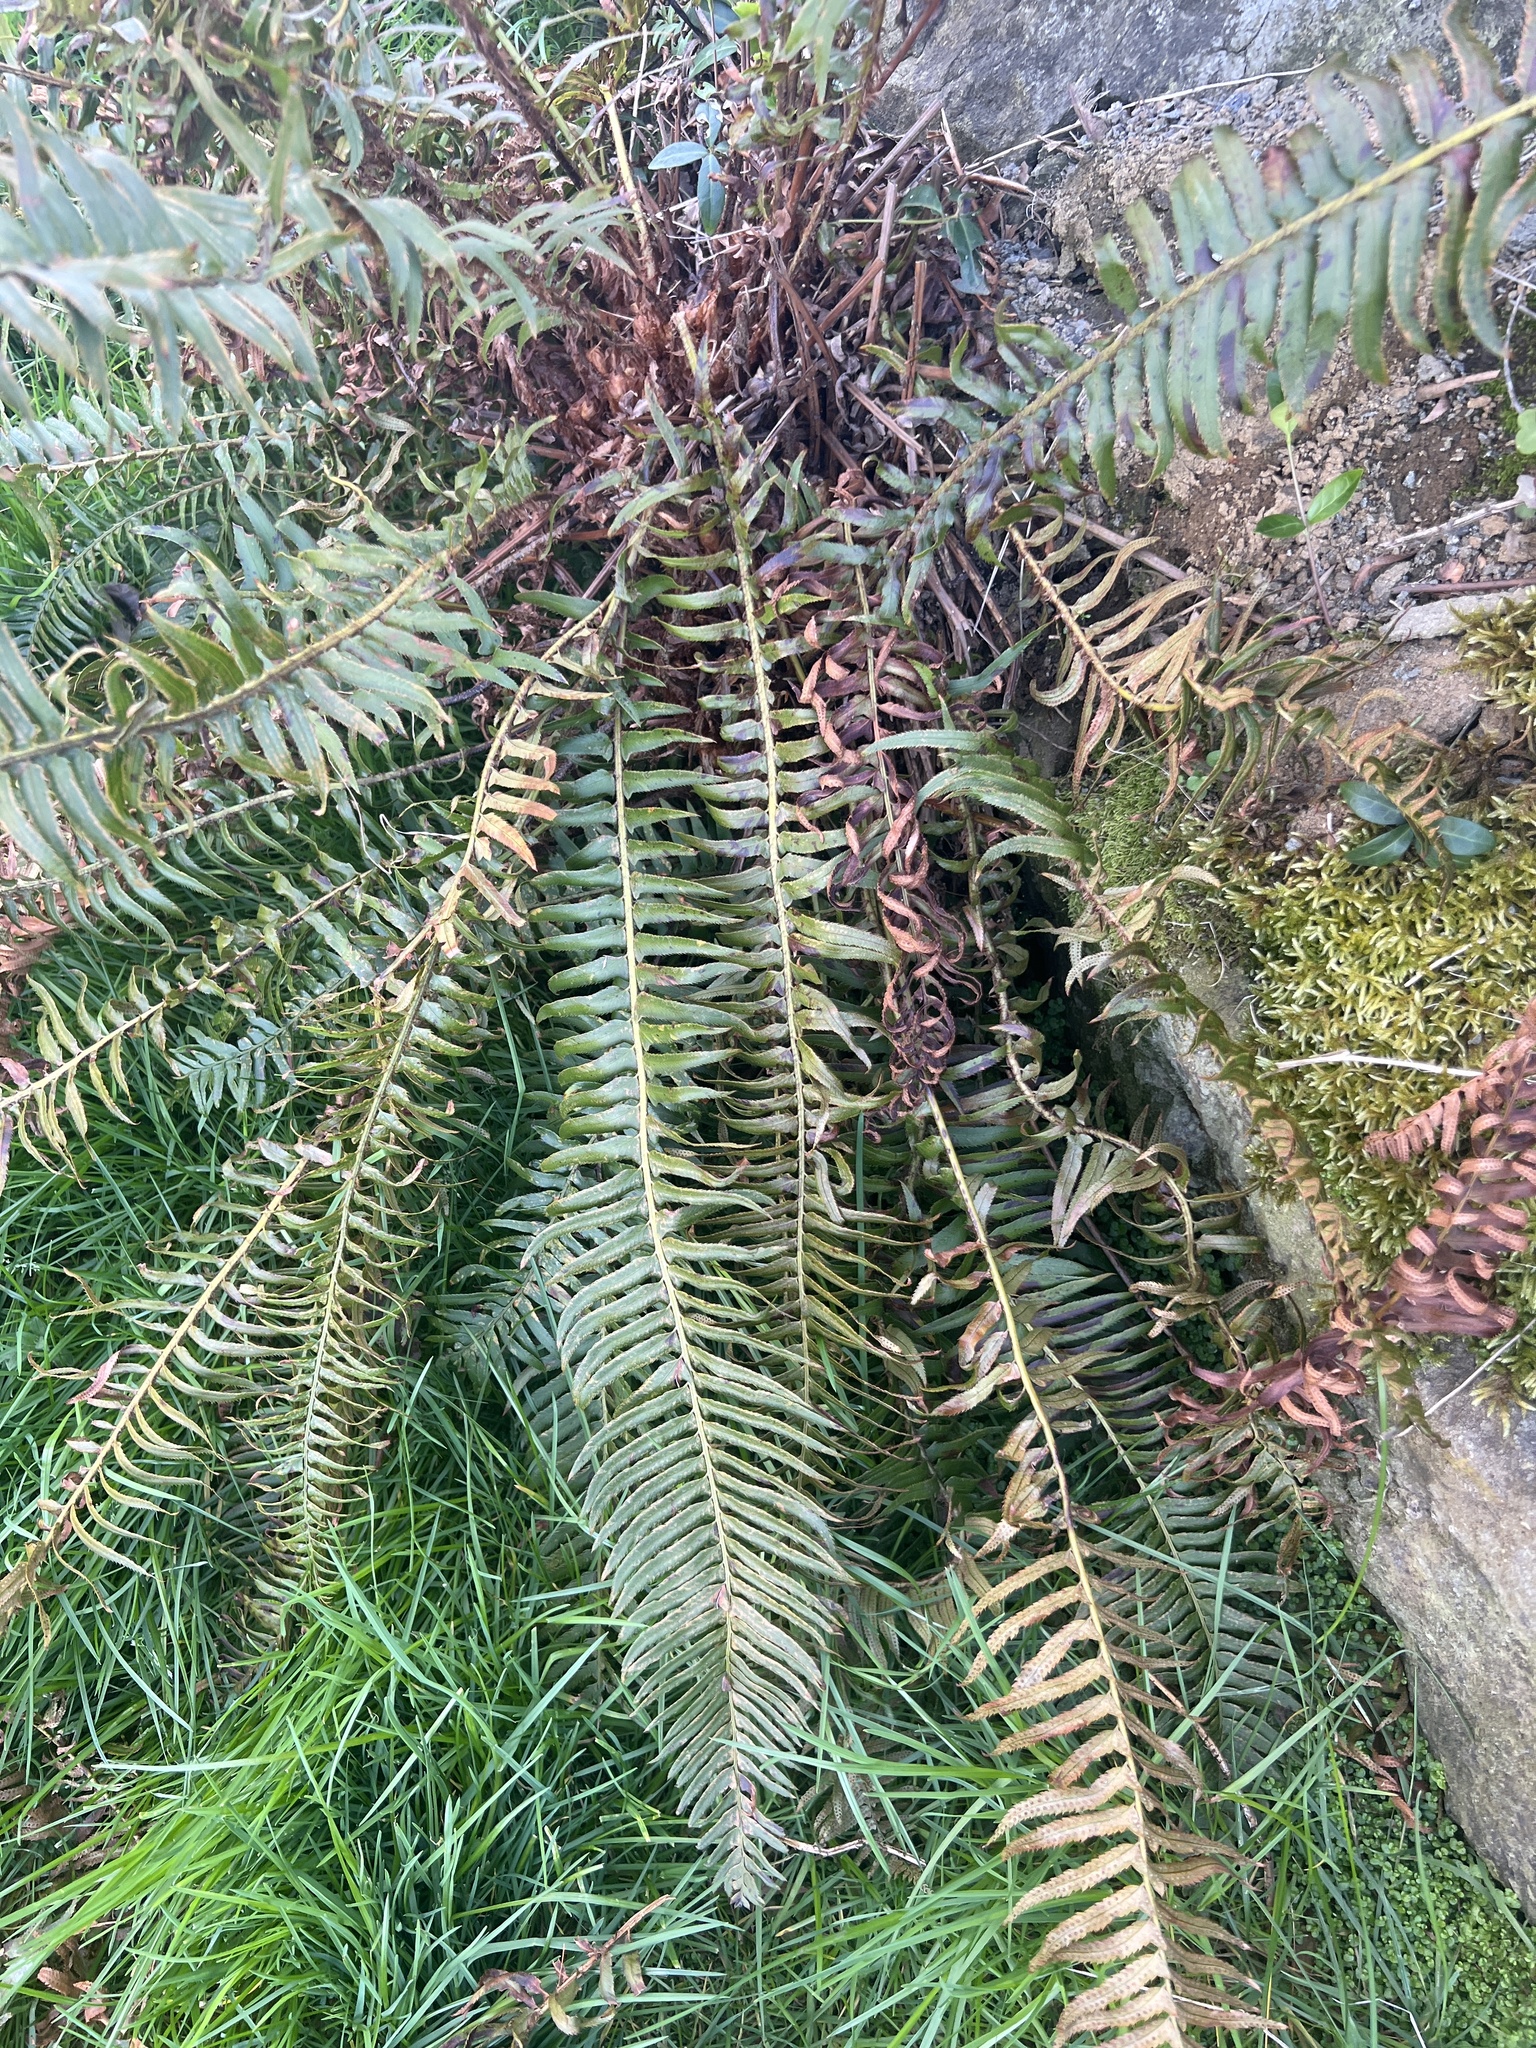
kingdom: Plantae
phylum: Tracheophyta
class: Polypodiopsida
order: Polypodiales
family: Dryopteridaceae
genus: Polystichum
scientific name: Polystichum munitum
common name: Western sword-fern
